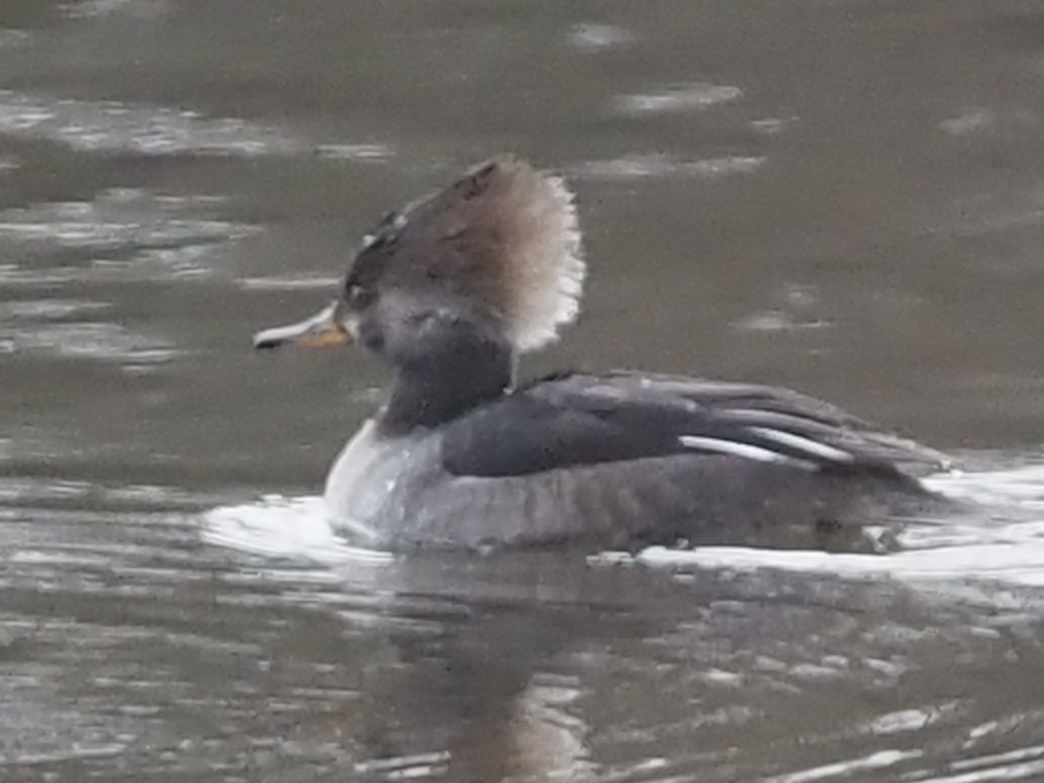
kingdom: Animalia
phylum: Chordata
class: Aves
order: Anseriformes
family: Anatidae
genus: Lophodytes
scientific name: Lophodytes cucullatus
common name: Hooded merganser
